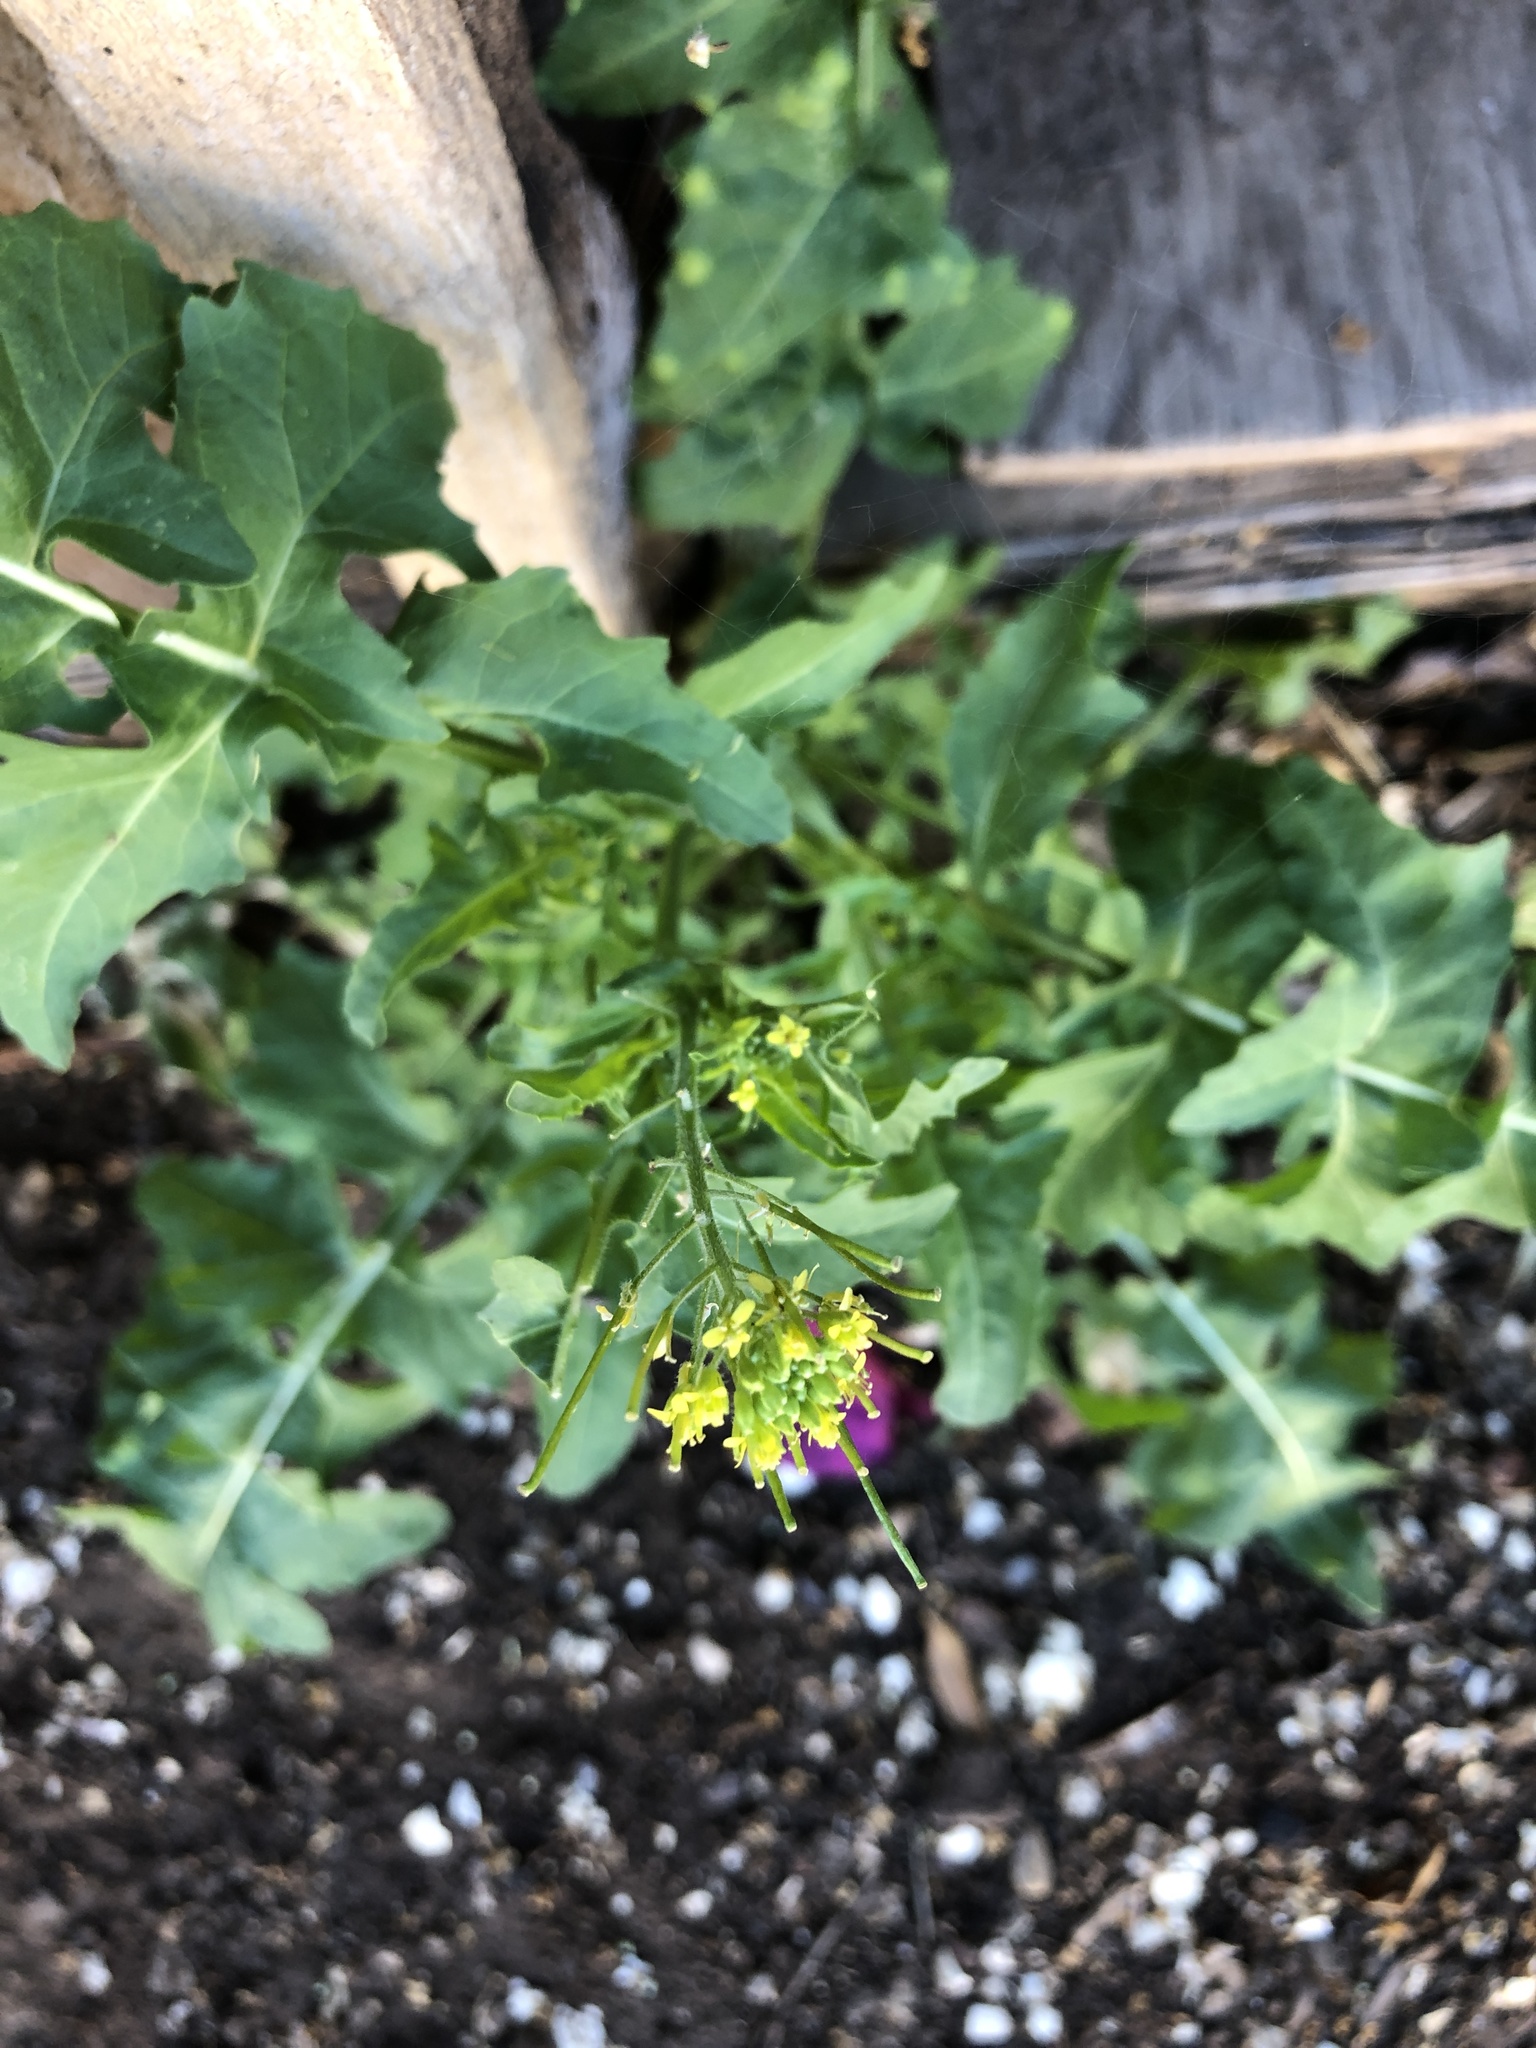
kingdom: Plantae
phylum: Tracheophyta
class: Magnoliopsida
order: Brassicales
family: Brassicaceae
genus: Sisymbrium
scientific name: Sisymbrium irio
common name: London rocket
